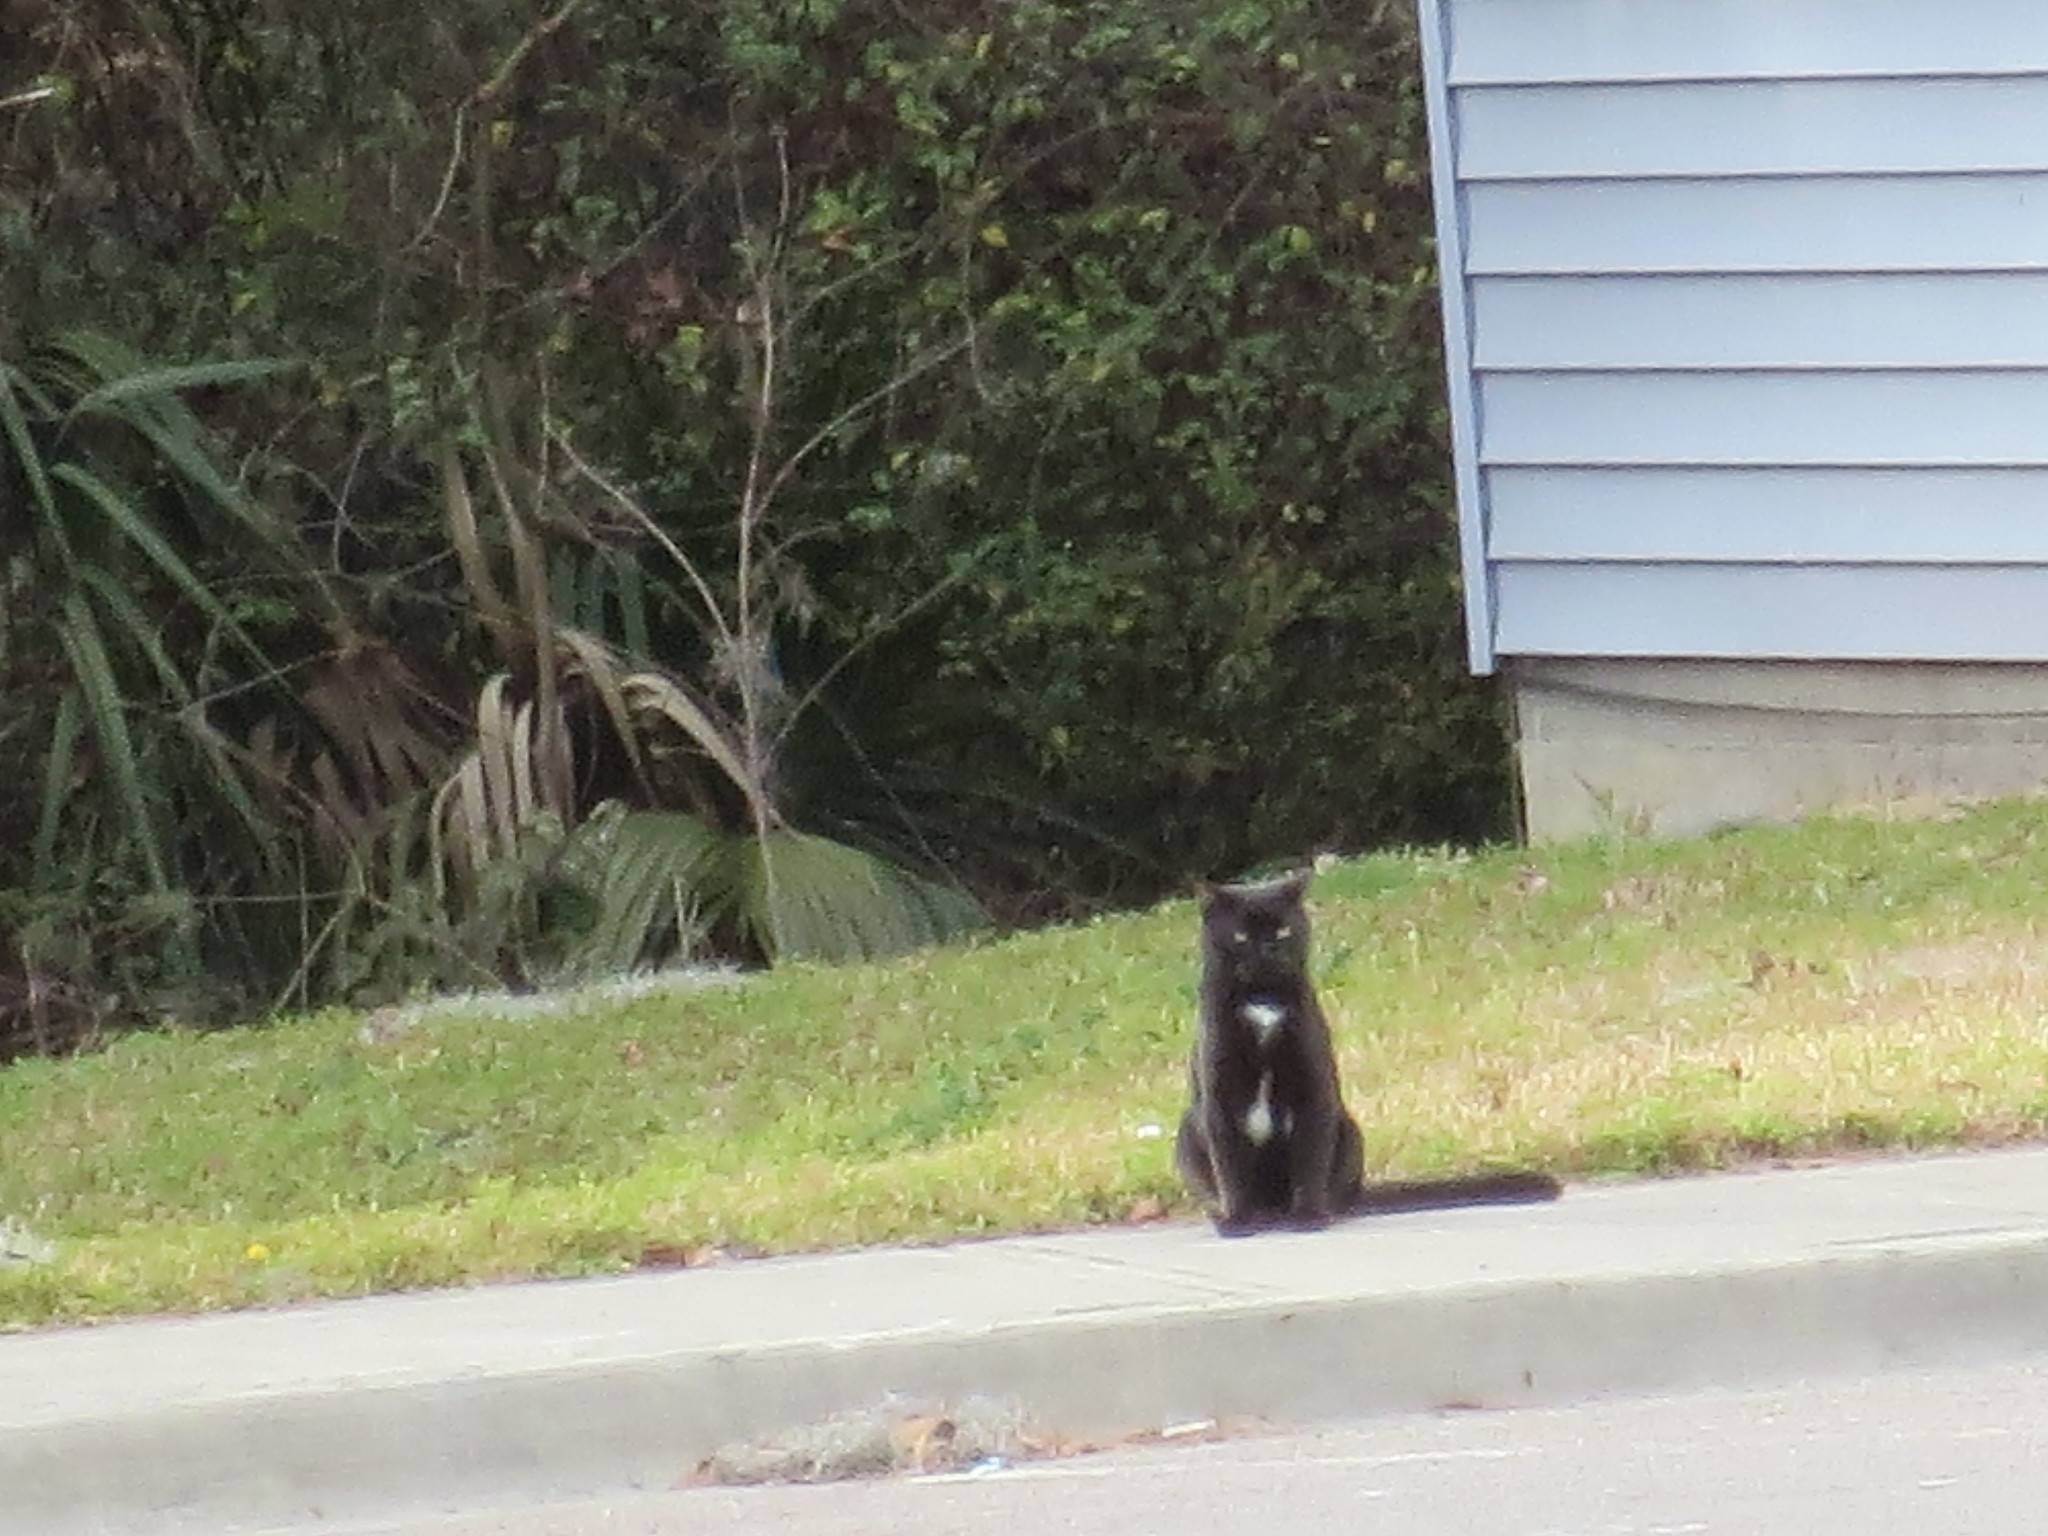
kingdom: Animalia
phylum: Chordata
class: Mammalia
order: Carnivora
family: Felidae
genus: Felis
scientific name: Felis catus
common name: Domestic cat
